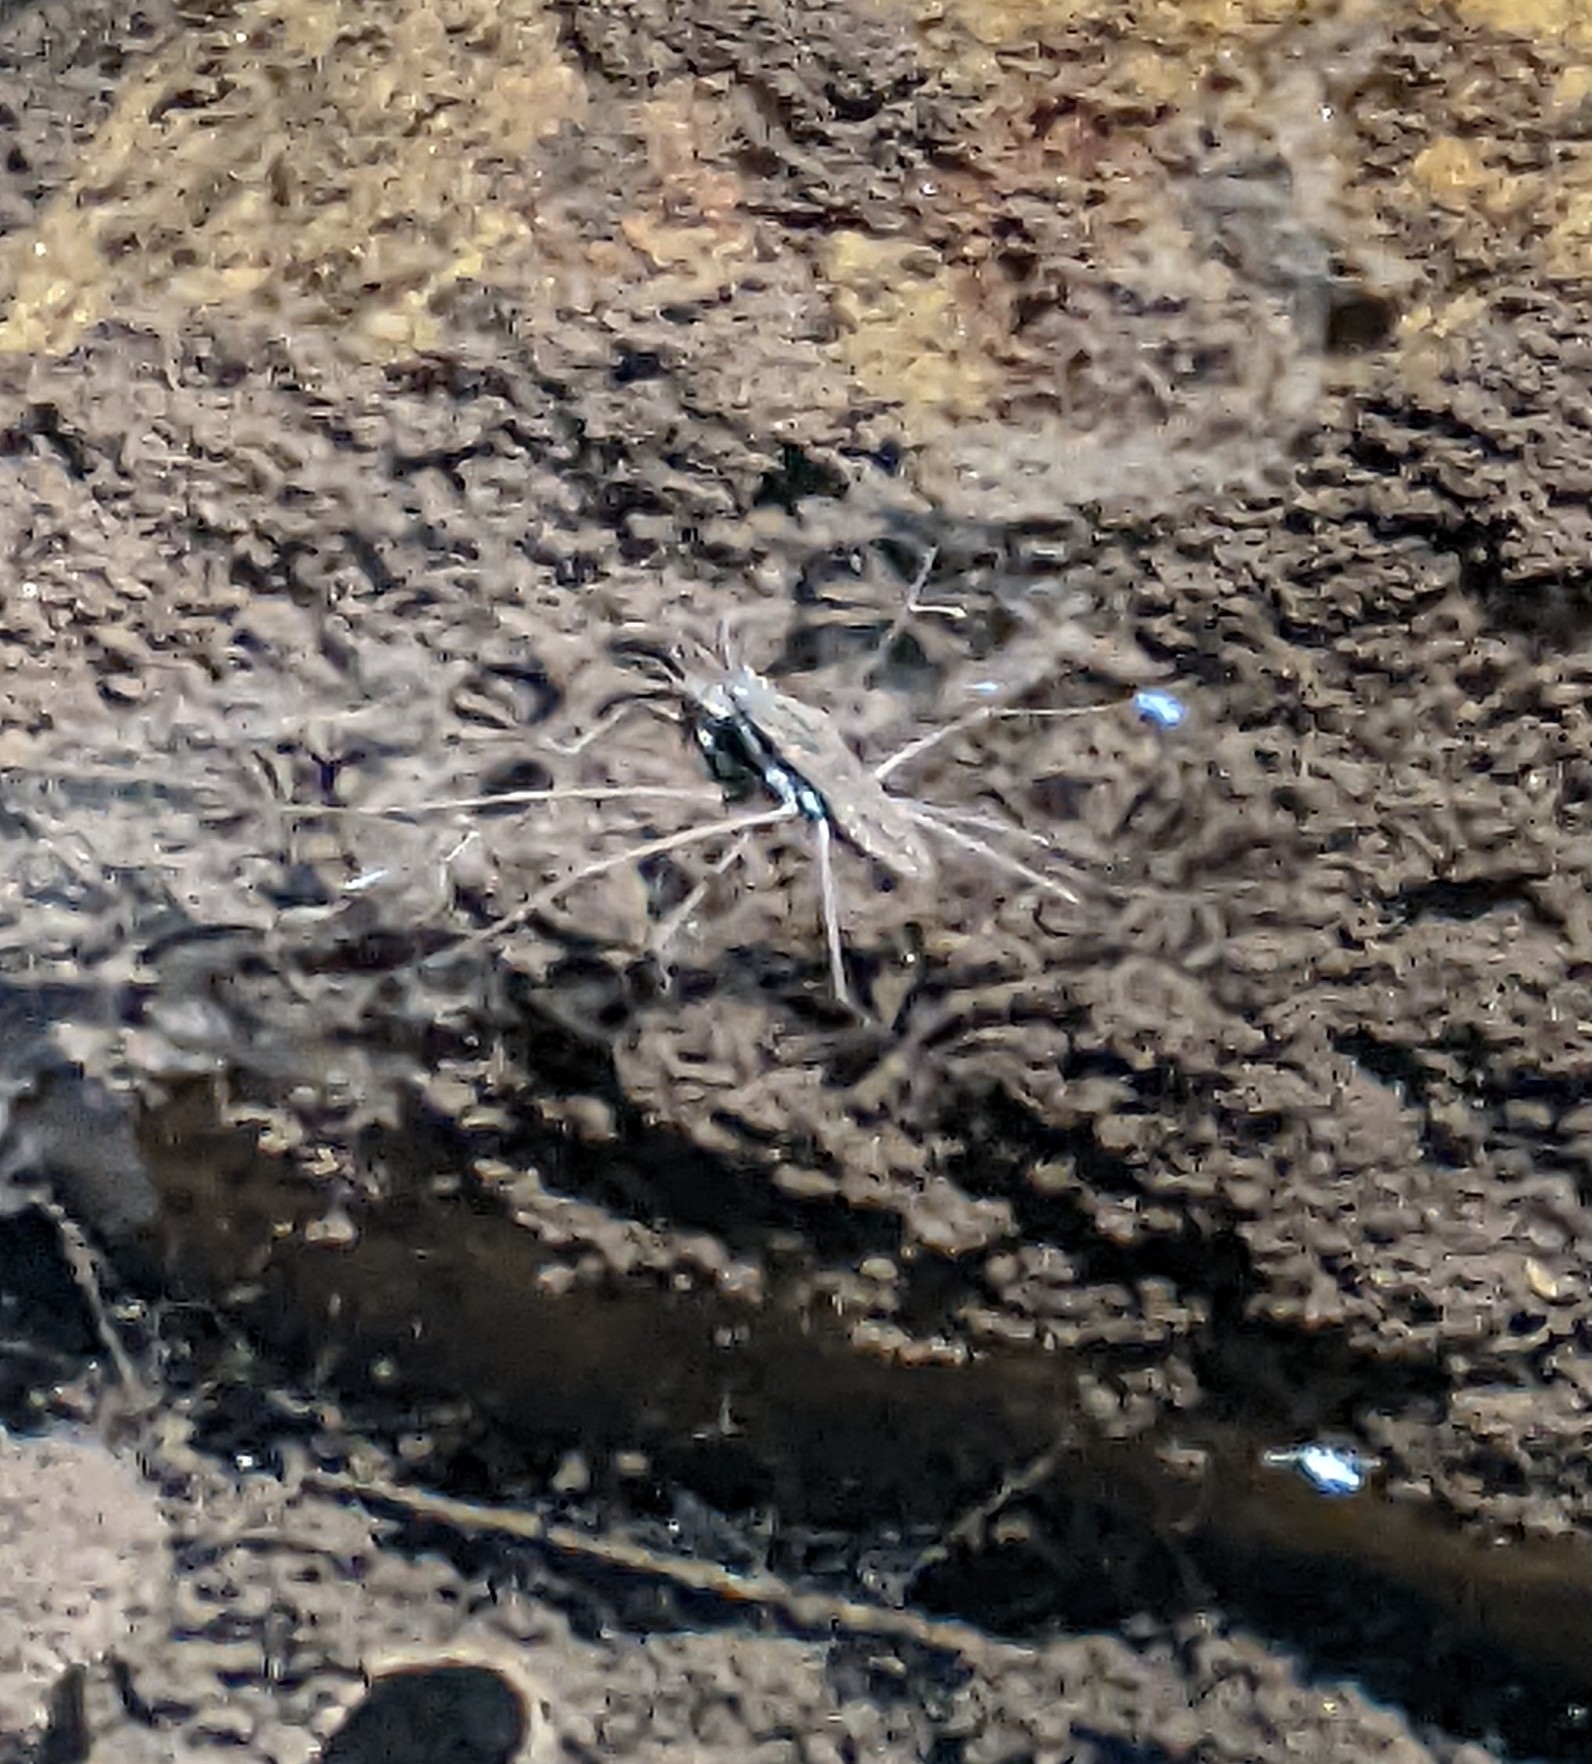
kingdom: Animalia
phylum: Arthropoda
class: Insecta
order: Hemiptera
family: Gerridae
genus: Aquarius
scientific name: Aquarius remigis
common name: Common water strider
